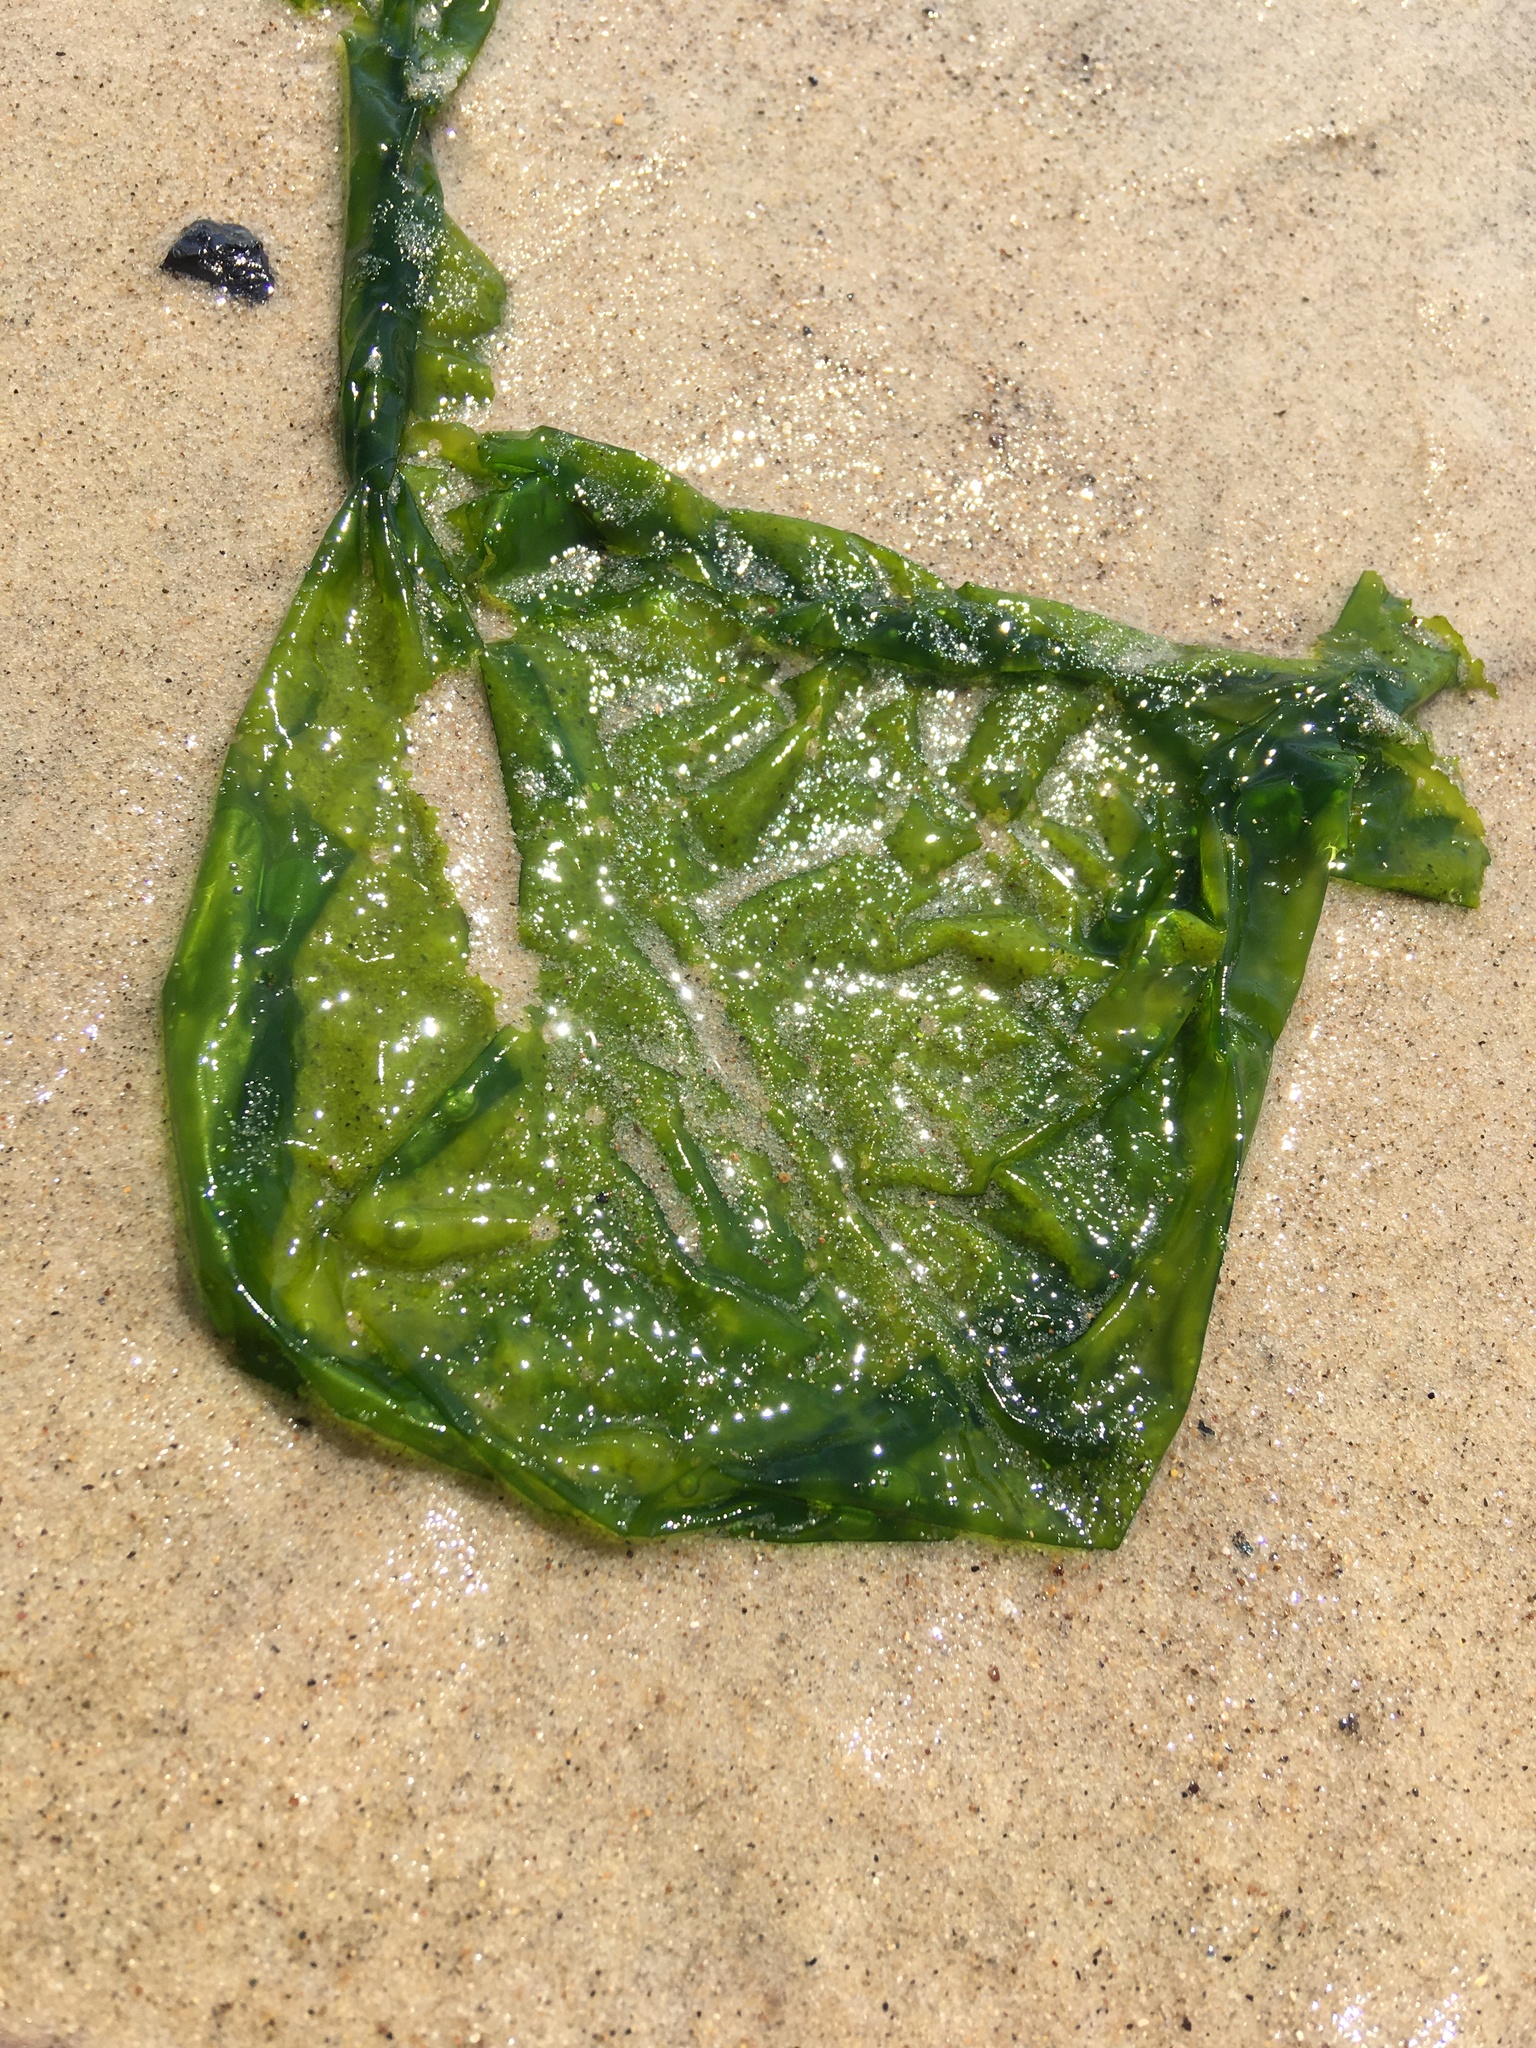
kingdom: Plantae
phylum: Chlorophyta
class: Ulvophyceae
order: Ulvales
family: Ulvaceae
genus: Ulva
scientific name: Ulva lactuca
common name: Sea lettuce
